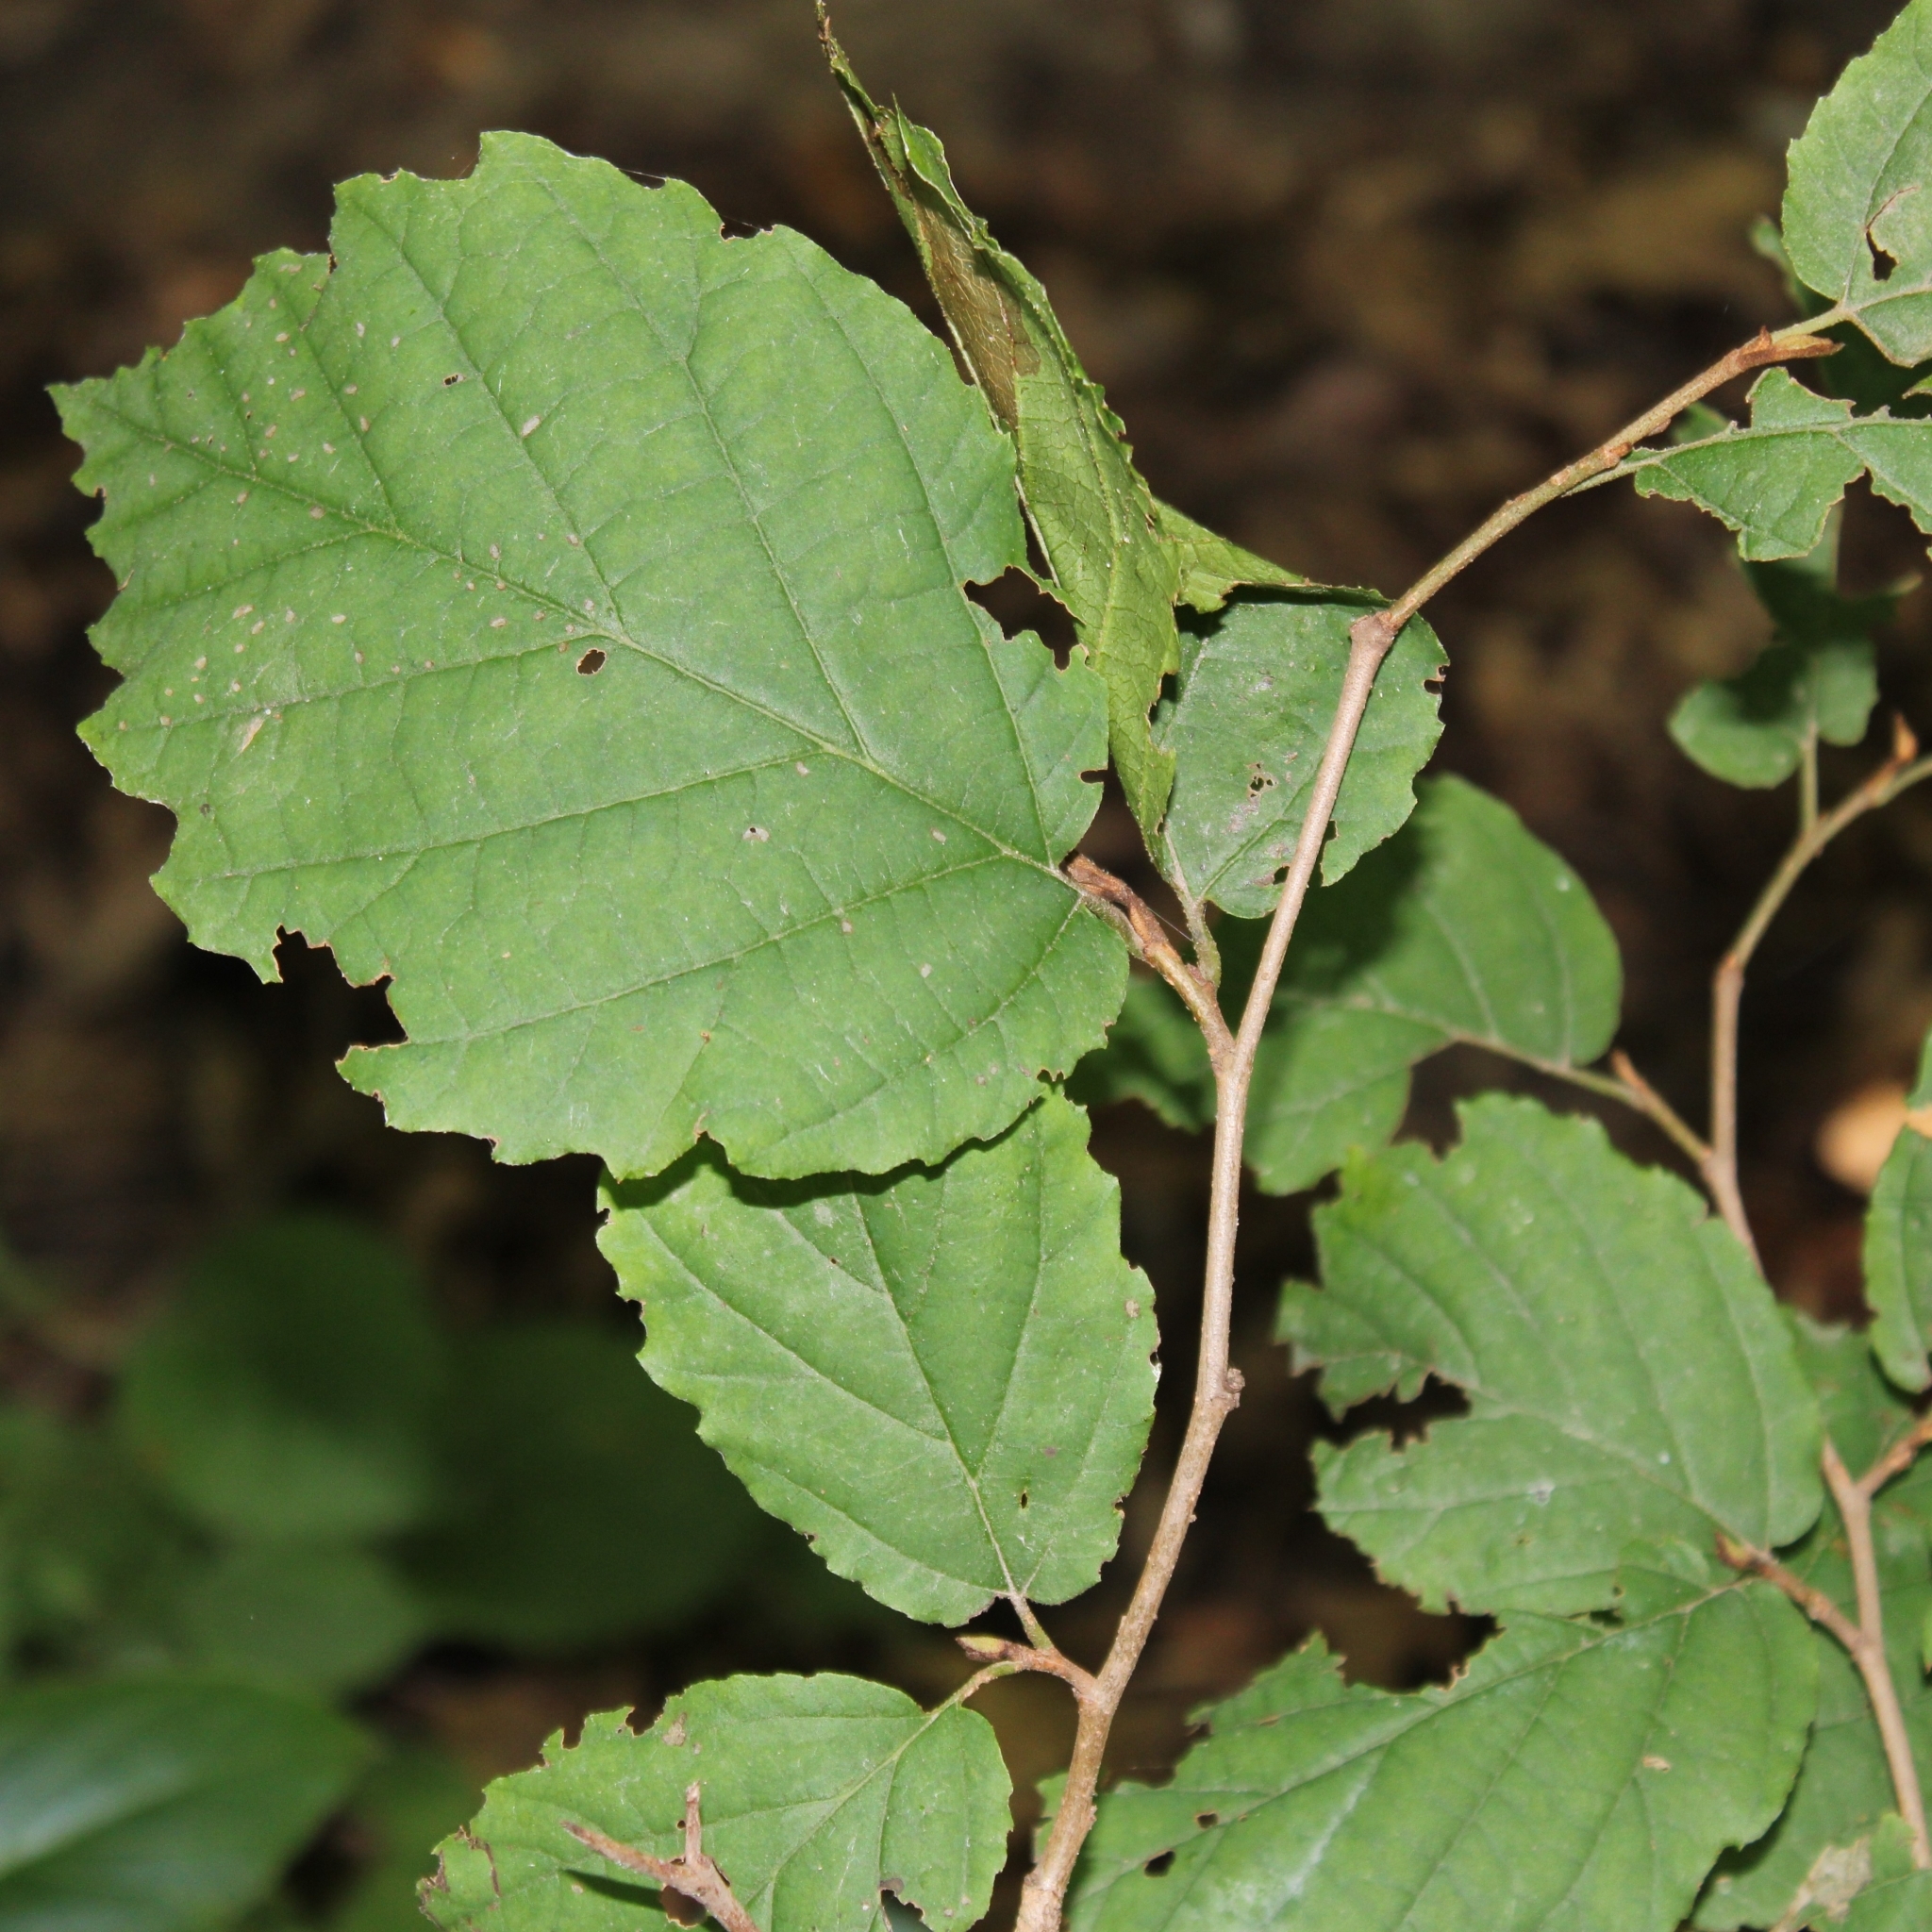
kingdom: Plantae
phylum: Tracheophyta
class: Magnoliopsida
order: Saxifragales
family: Hamamelidaceae
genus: Hamamelis
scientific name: Hamamelis virginiana
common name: Witch-hazel
